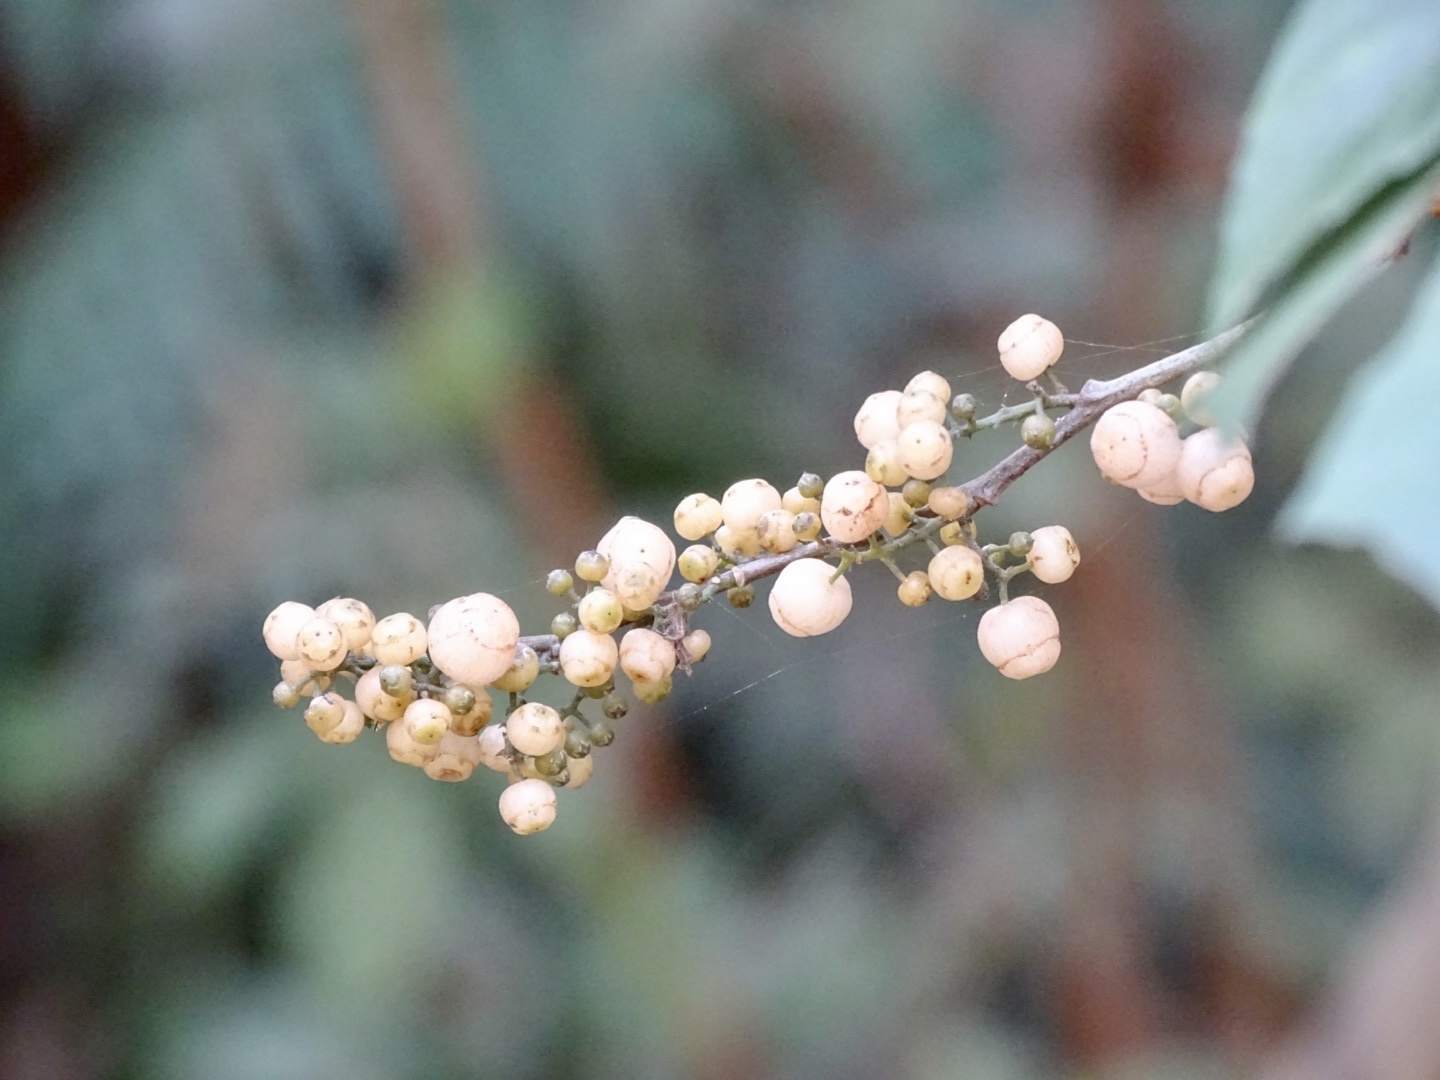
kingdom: Plantae
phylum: Tracheophyta
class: Magnoliopsida
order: Ericales
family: Primulaceae
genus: Maesa
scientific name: Maesa perlaria
